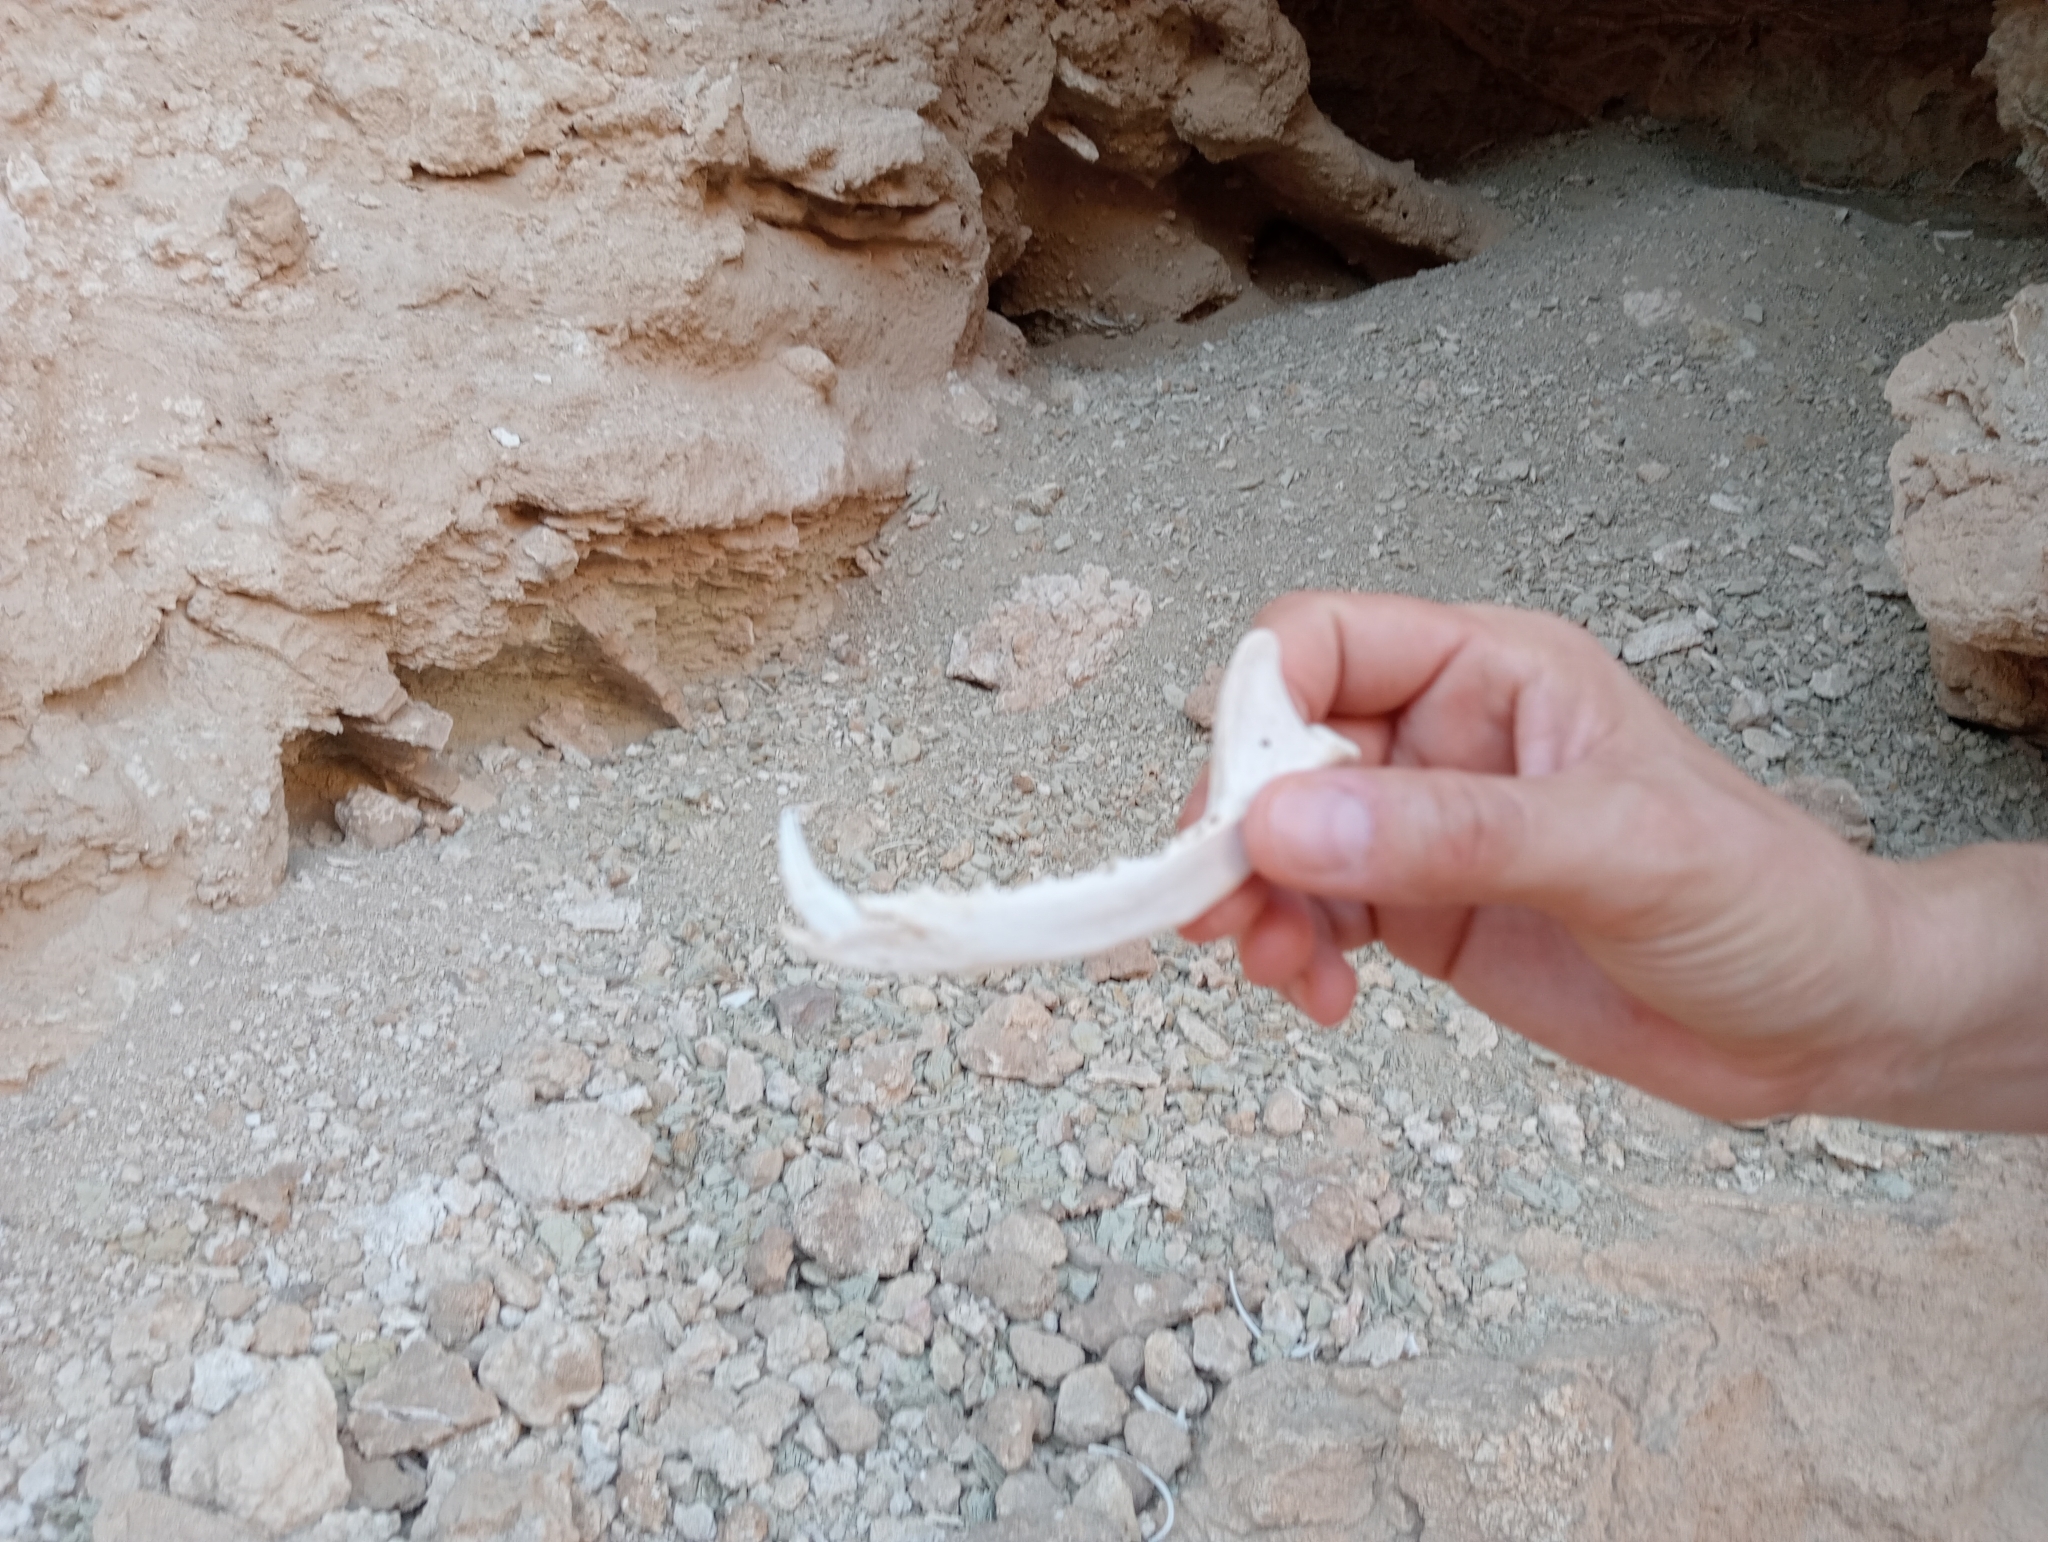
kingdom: Animalia
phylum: Chordata
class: Mammalia
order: Carnivora
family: Canidae
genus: Vulpes
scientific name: Vulpes vulpes
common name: Red fox
